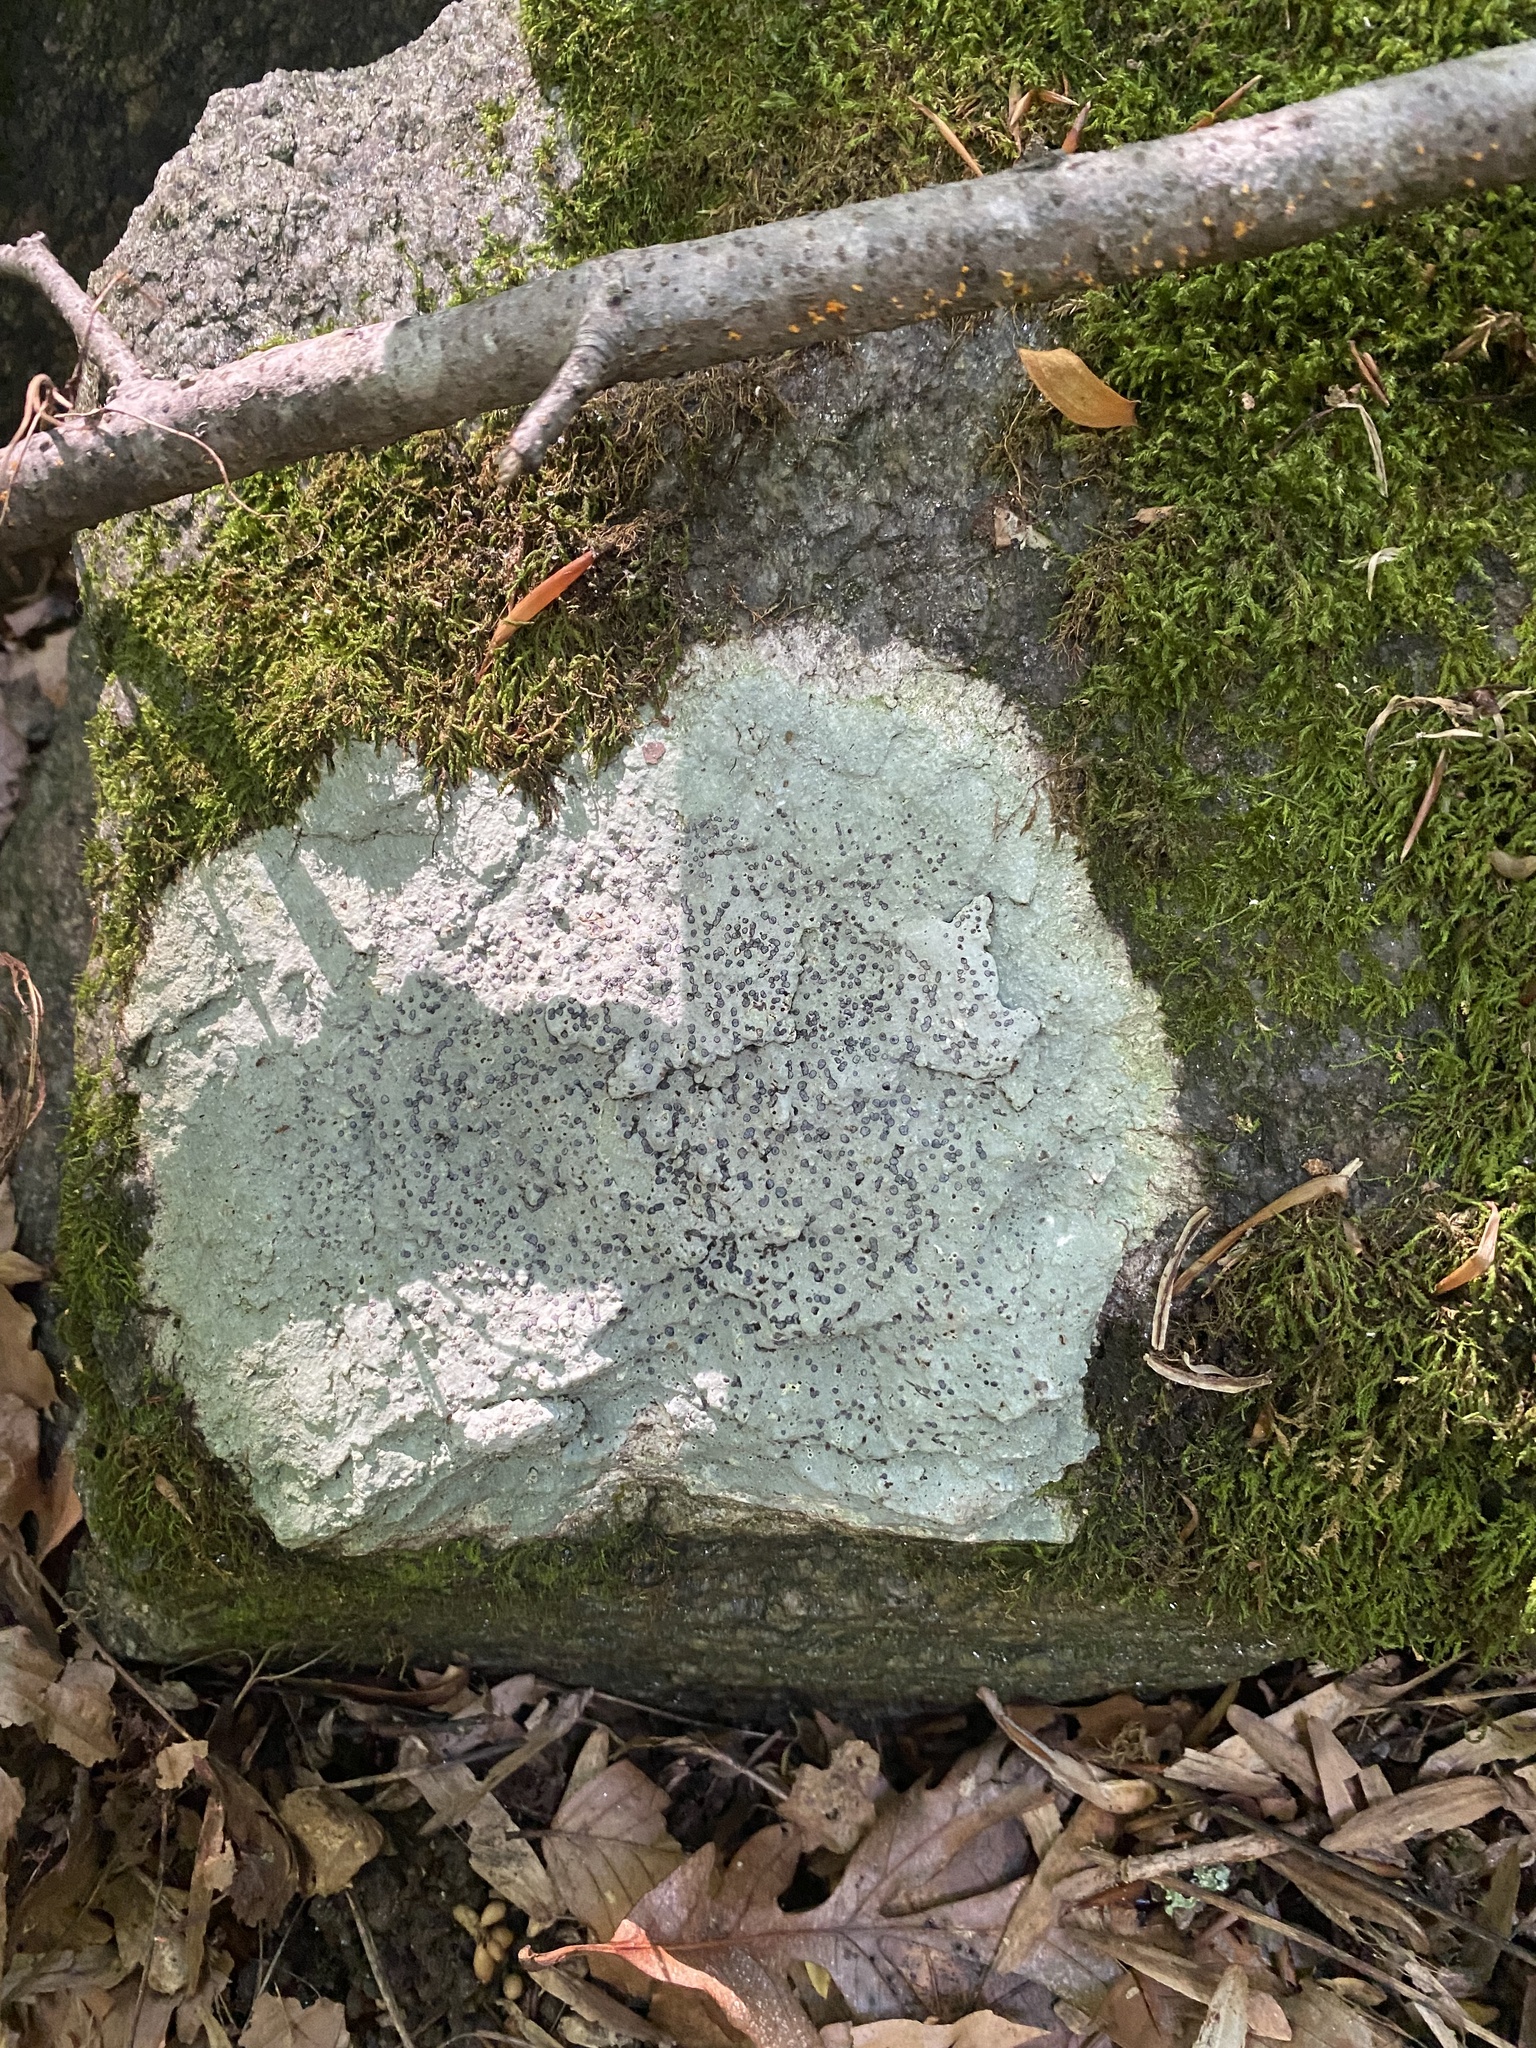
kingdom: Fungi
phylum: Ascomycota
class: Lecanoromycetes
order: Lecideales
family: Lecideaceae
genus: Porpidia
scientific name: Porpidia albocaerulescens
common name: Smokey-eyed boulder lichen
